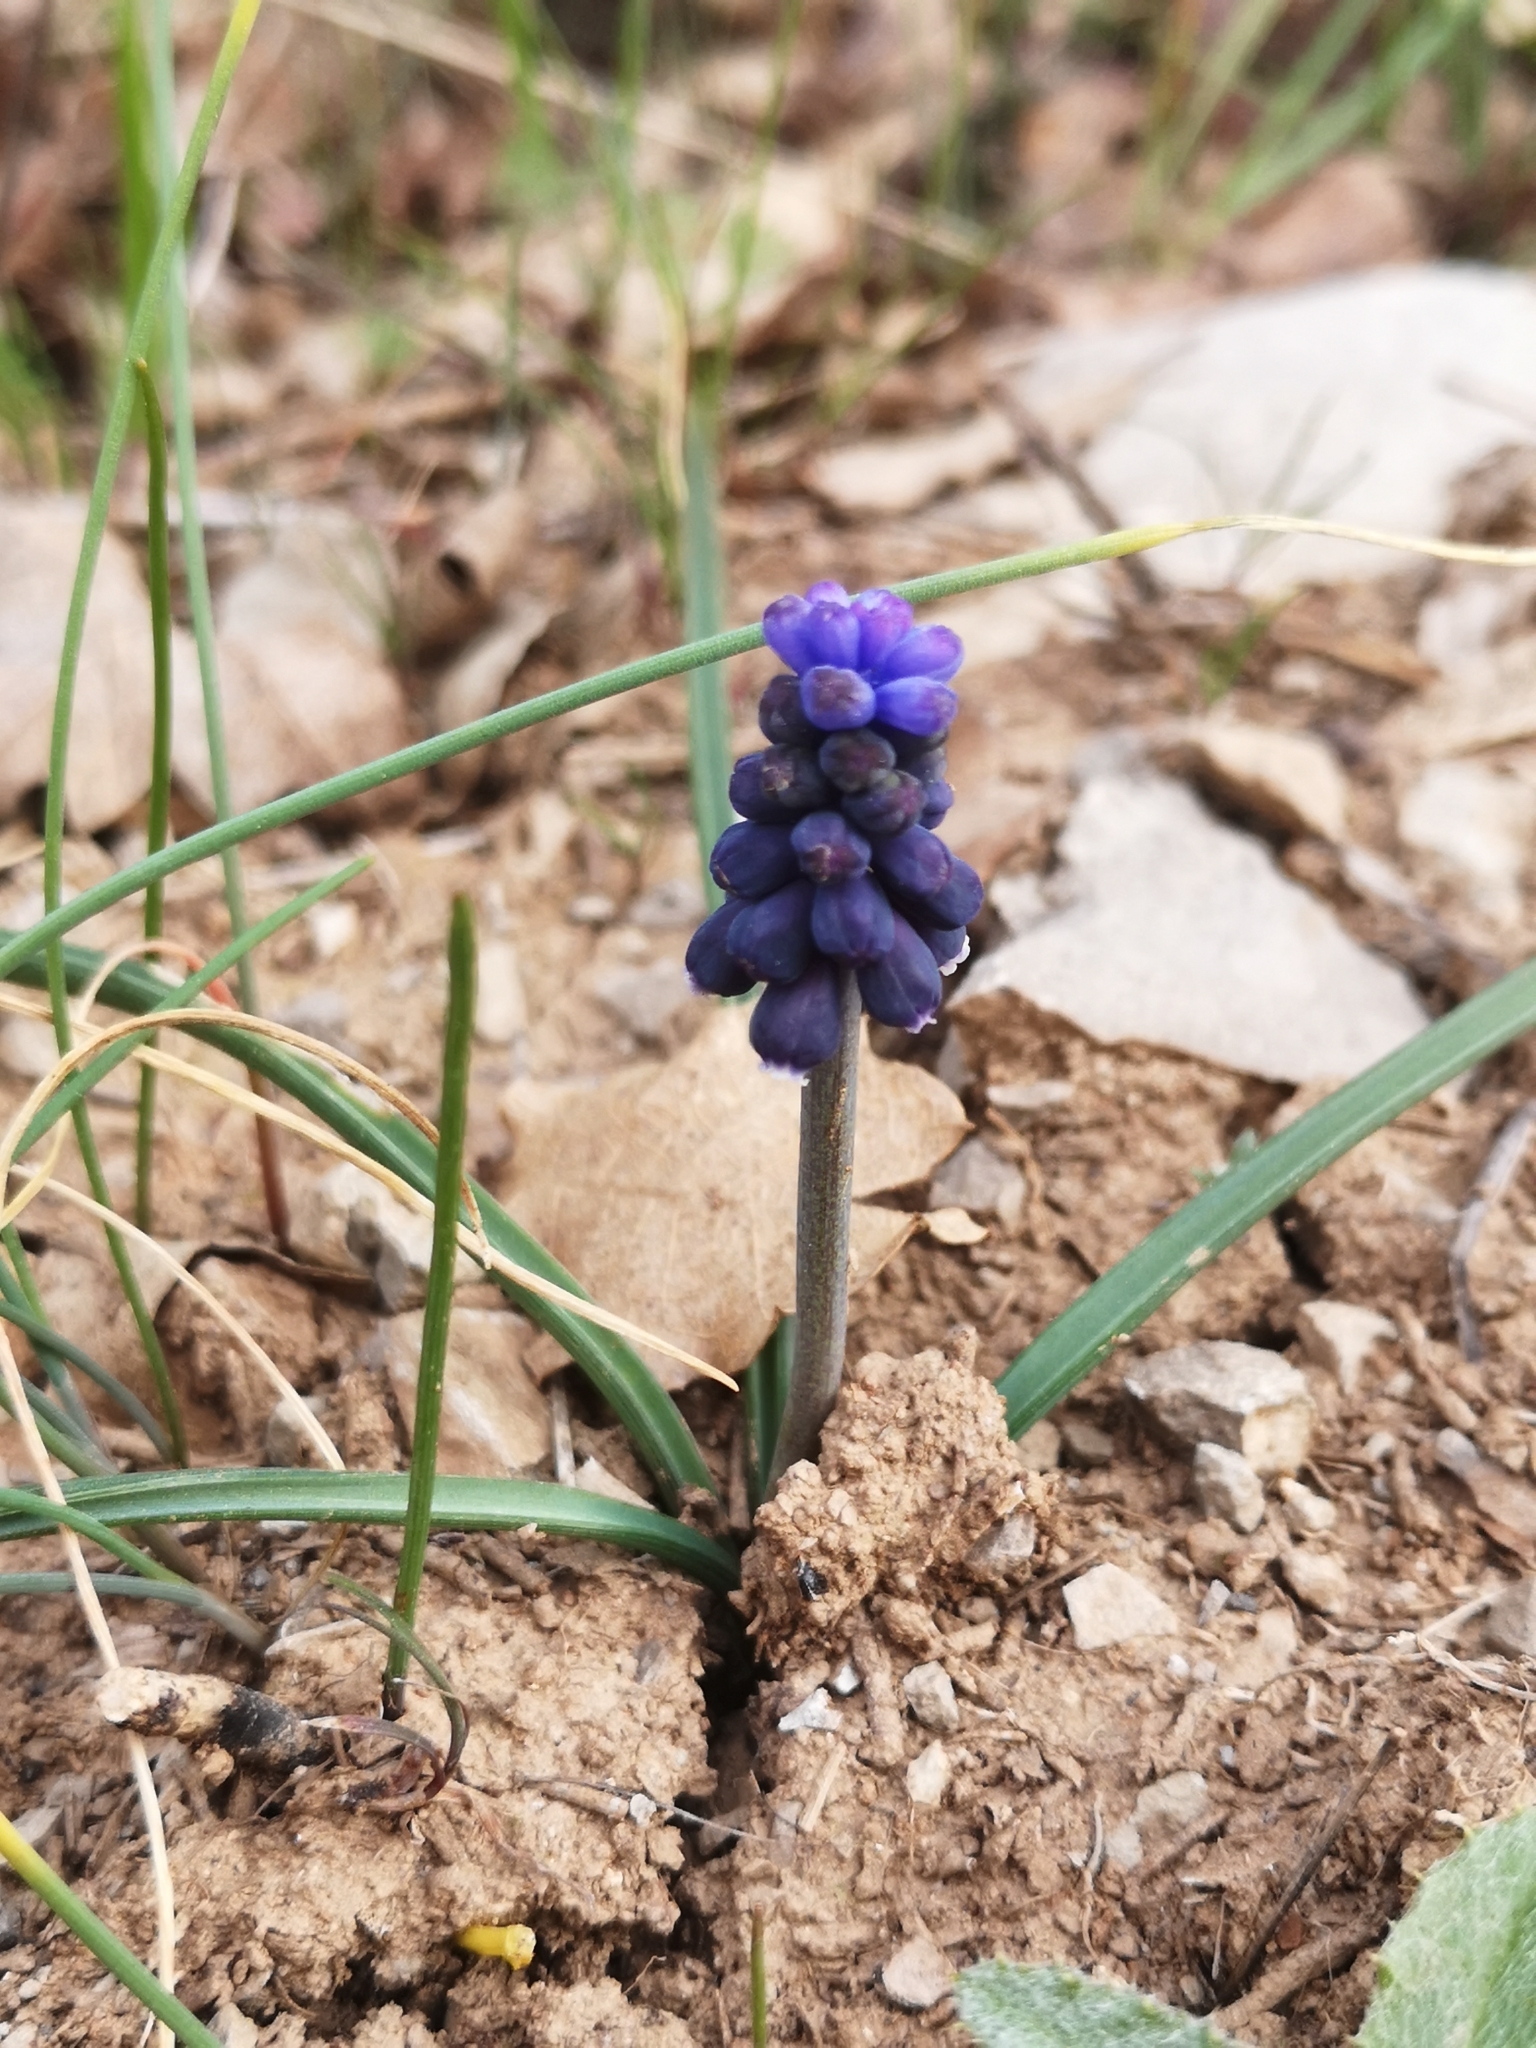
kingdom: Plantae
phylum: Tracheophyta
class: Liliopsida
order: Asparagales
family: Asparagaceae
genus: Muscari
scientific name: Muscari neglectum
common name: Grape-hyacinth
